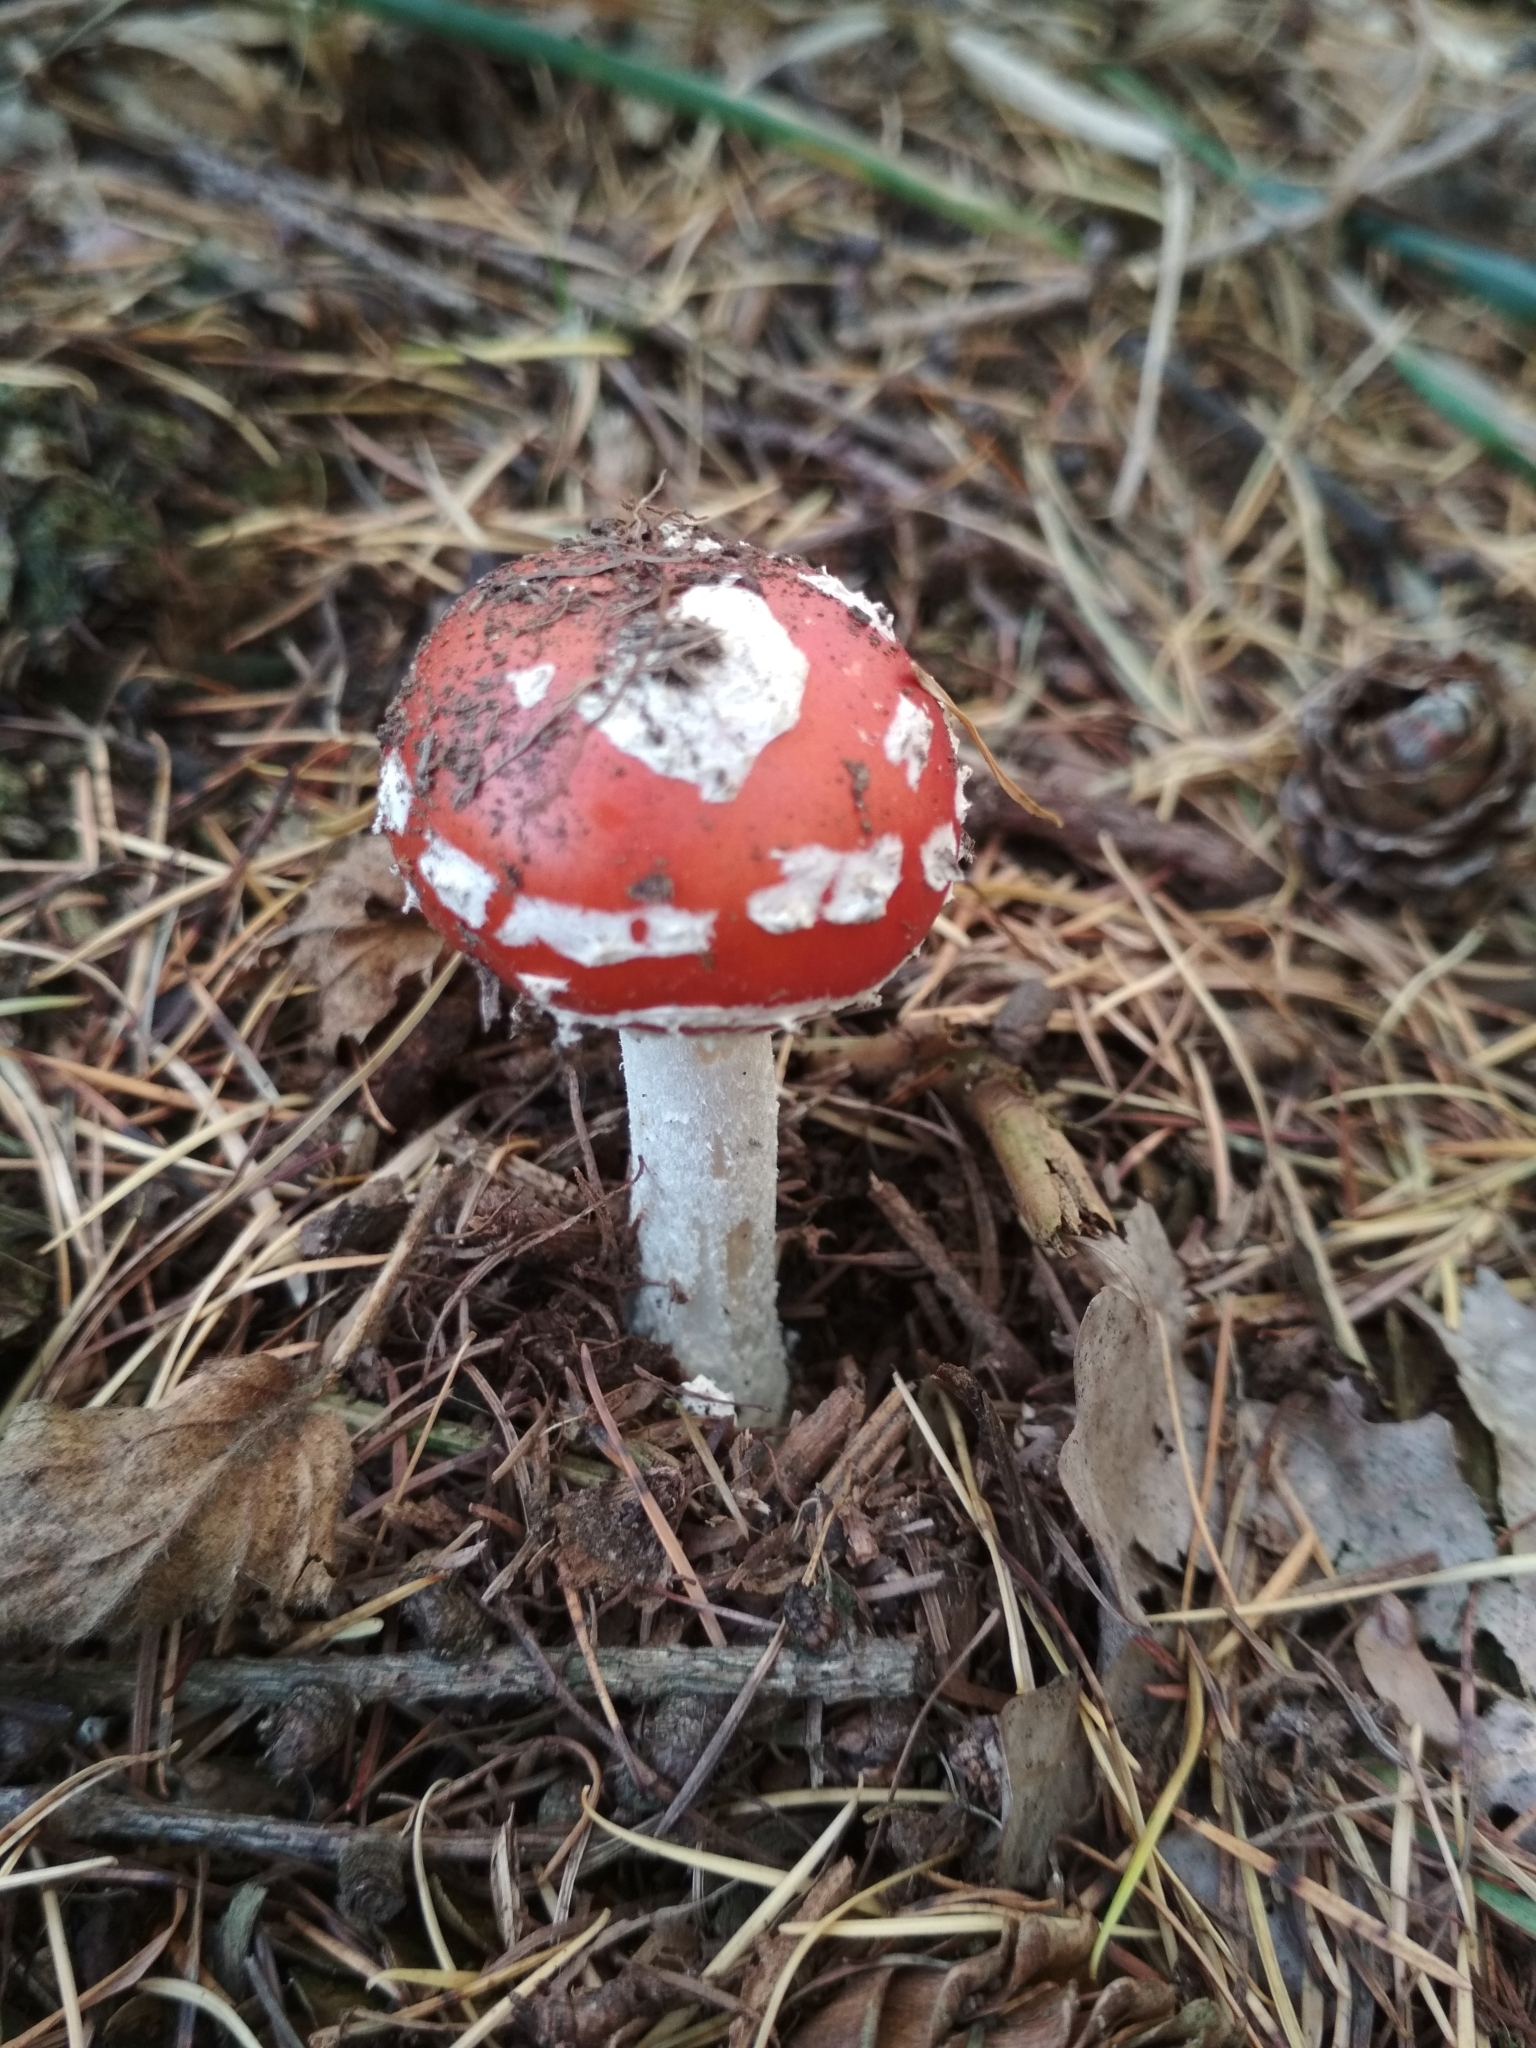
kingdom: Fungi
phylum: Basidiomycota
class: Agaricomycetes
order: Agaricales
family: Amanitaceae
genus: Amanita
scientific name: Amanita muscaria
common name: Fly agaric
